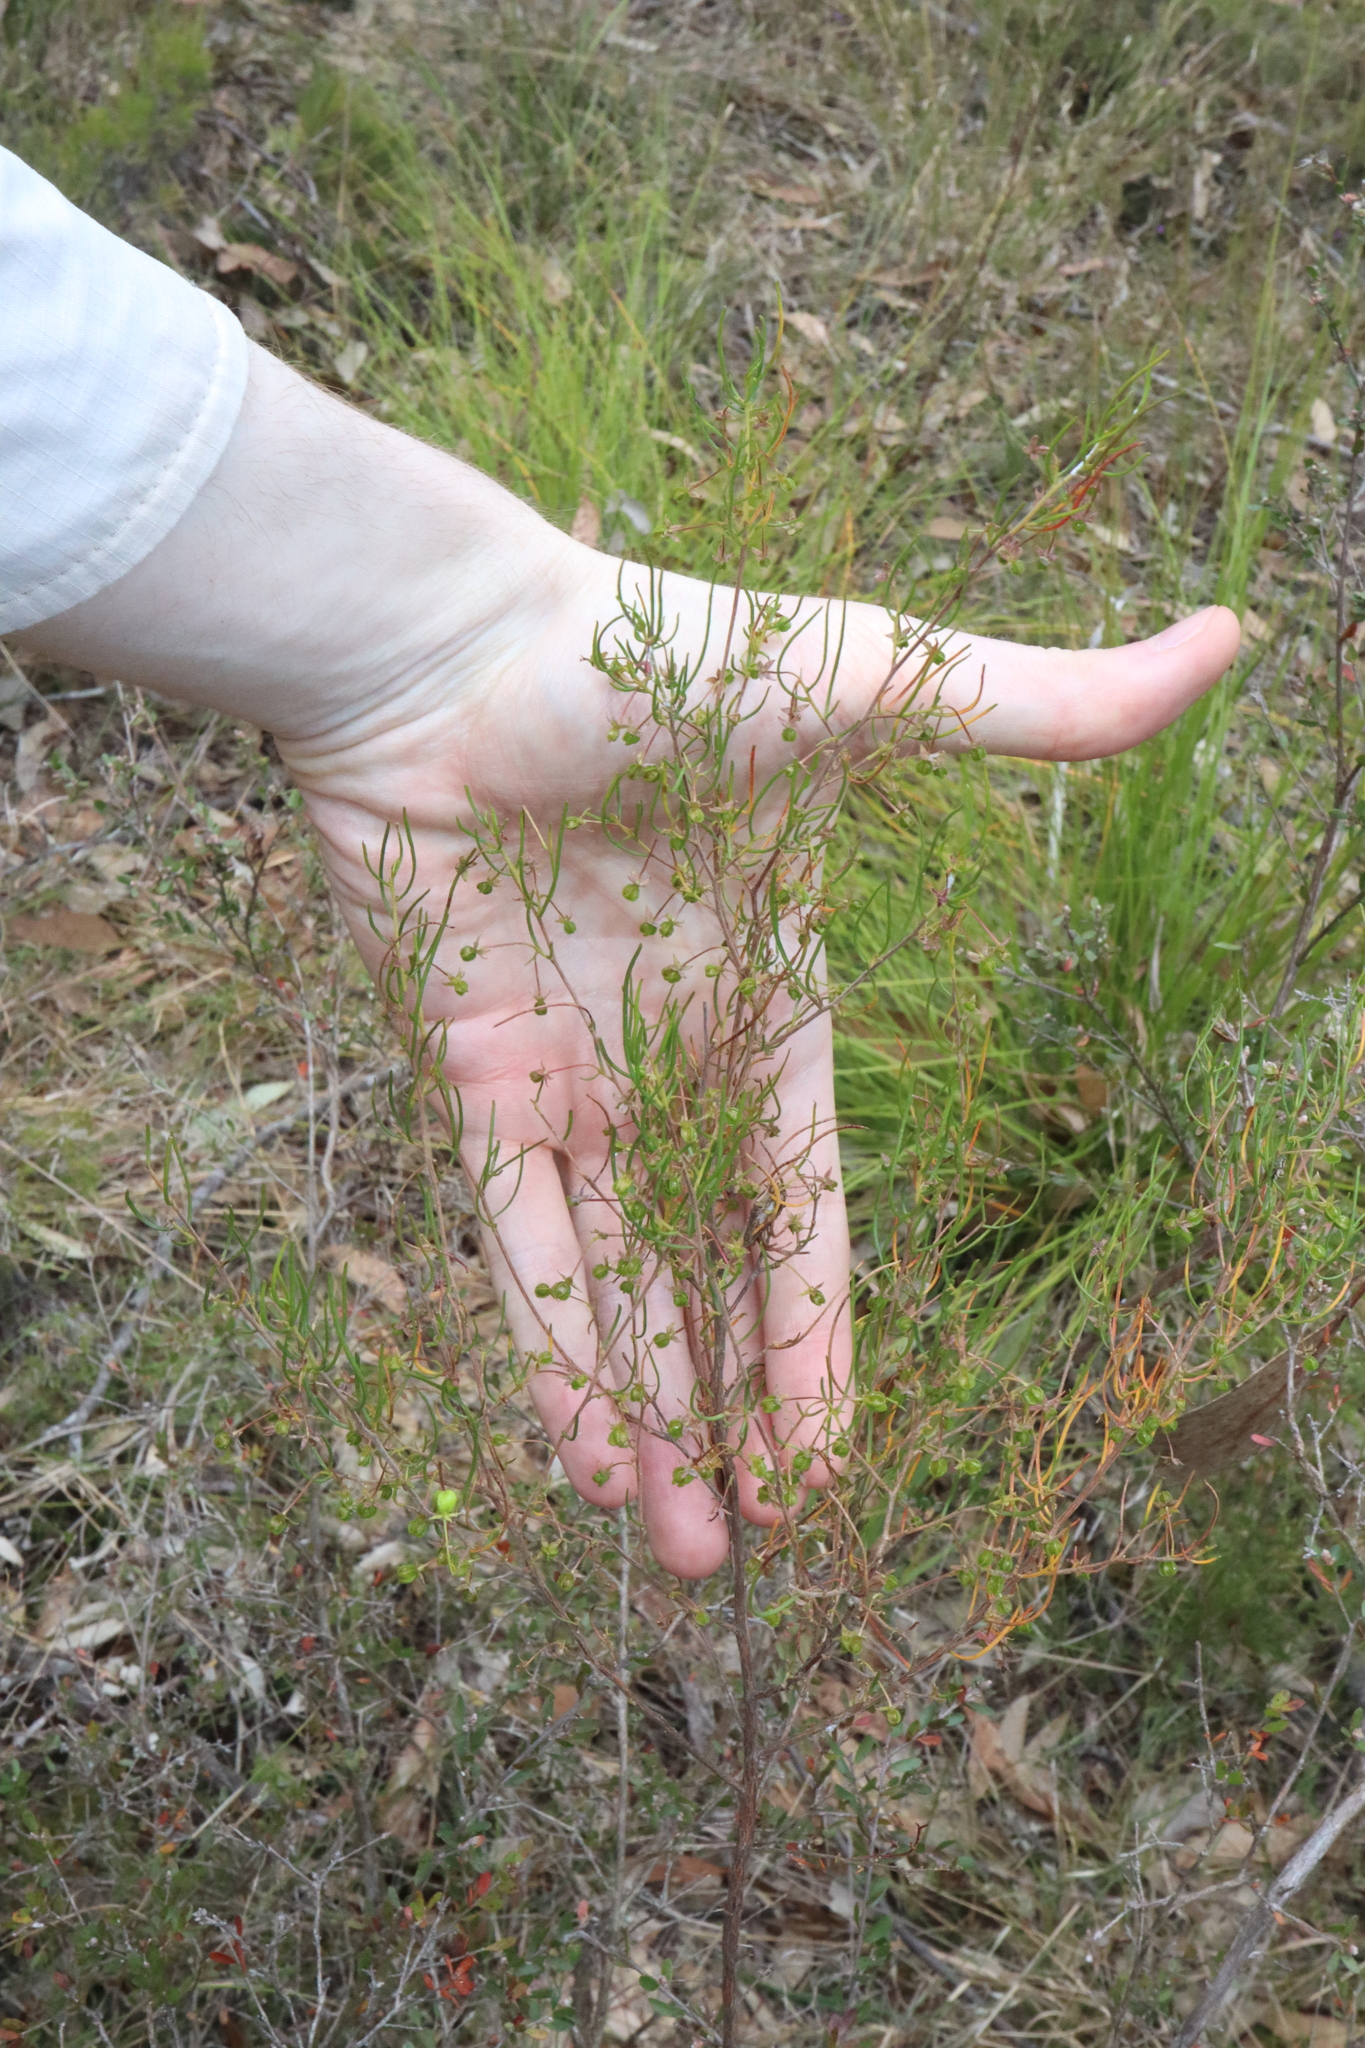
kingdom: Plantae
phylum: Tracheophyta
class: Magnoliopsida
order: Sapindales
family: Sapindaceae
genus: Dodonaea
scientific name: Dodonaea falcata
